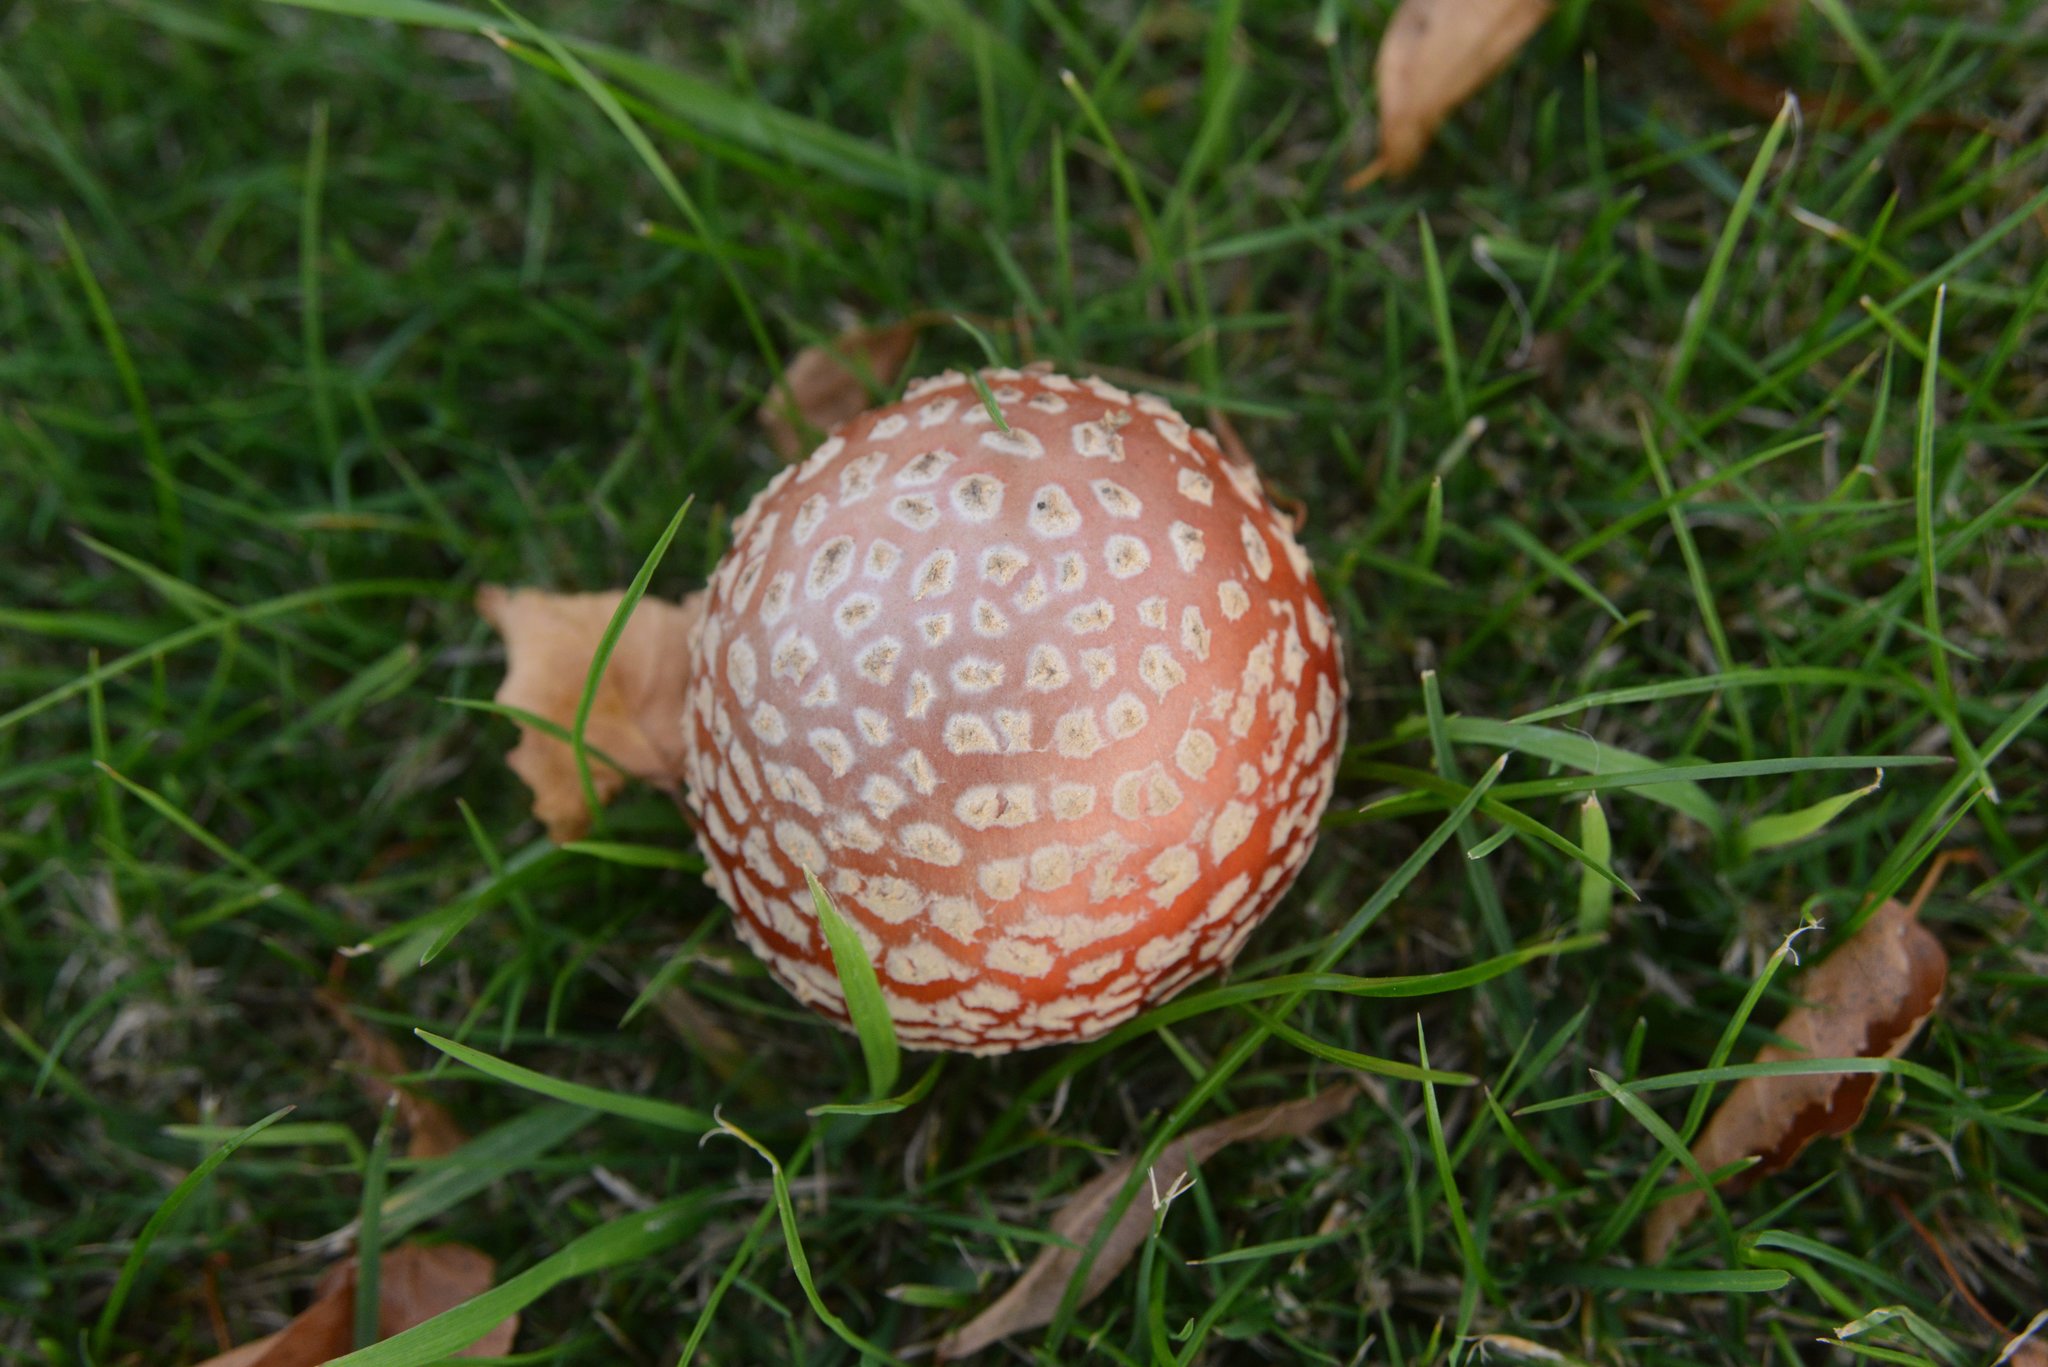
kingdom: Fungi
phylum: Basidiomycota
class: Agaricomycetes
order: Agaricales
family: Amanitaceae
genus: Amanita
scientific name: Amanita muscaria
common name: Fly agaric
